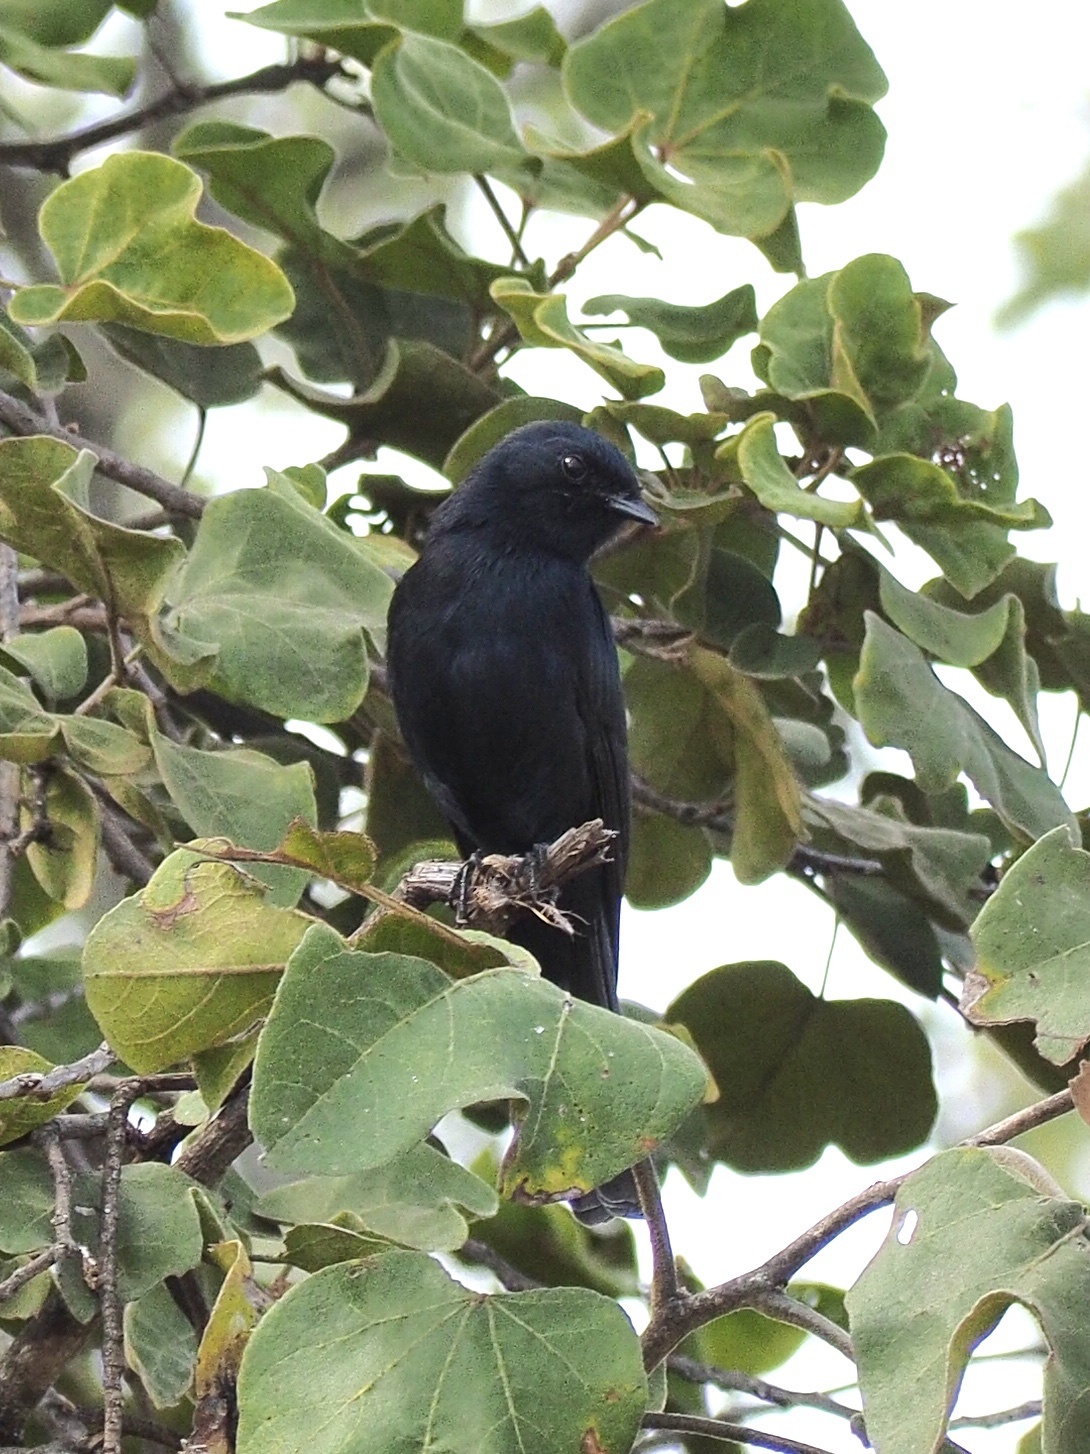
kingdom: Animalia
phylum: Chordata
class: Aves
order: Passeriformes
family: Muscicapidae
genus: Melaenornis
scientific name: Melaenornis pammelaina
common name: Southern black flycatcher
